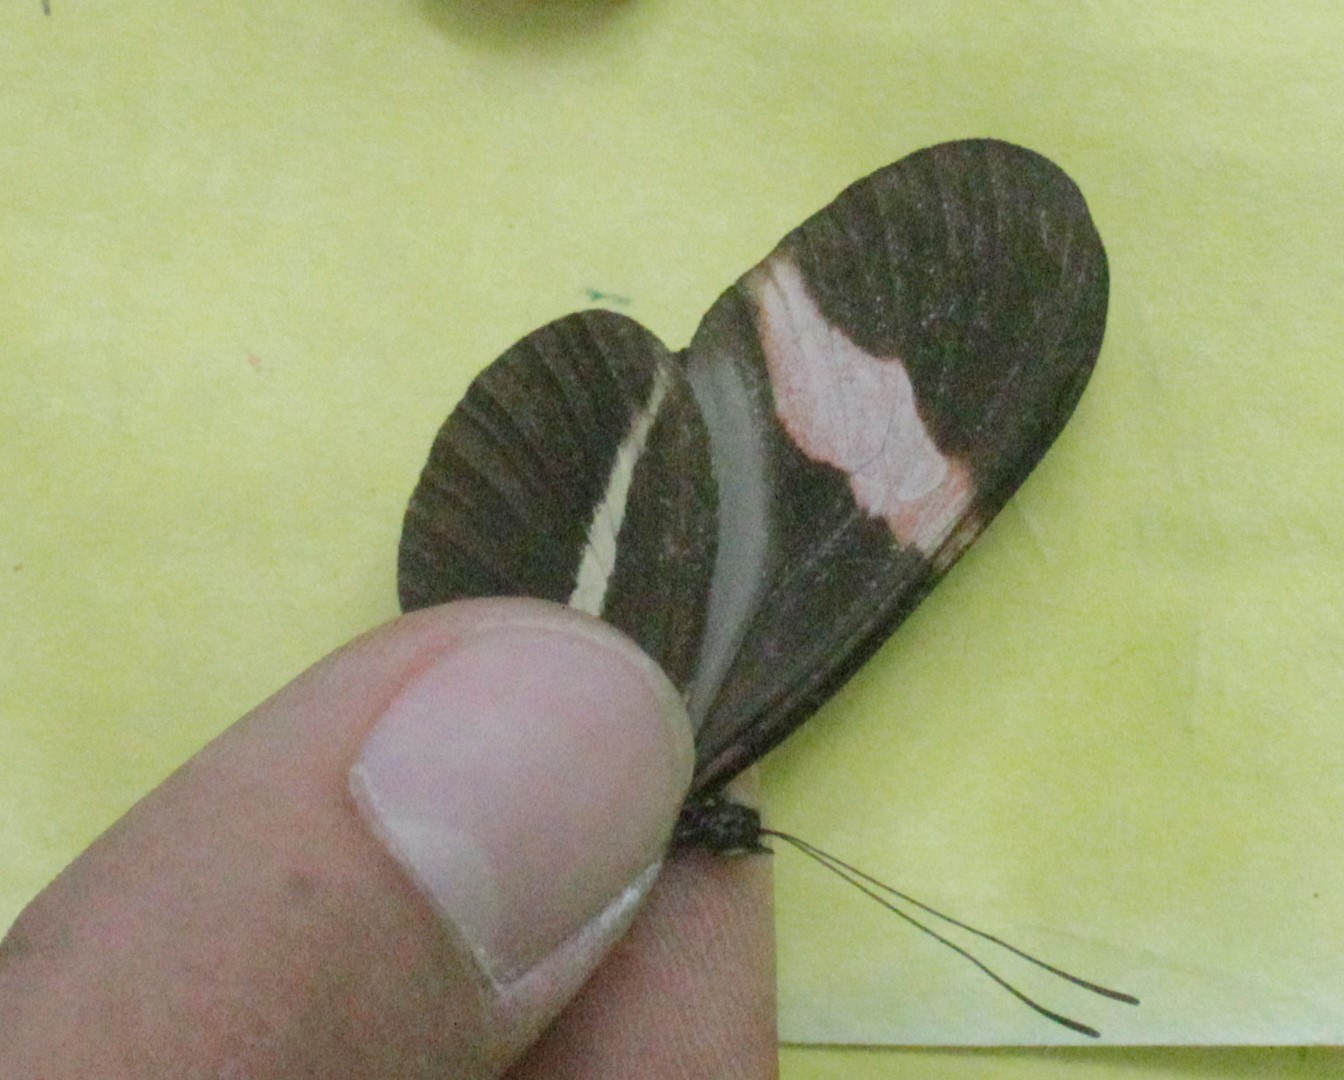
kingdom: Animalia
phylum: Arthropoda
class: Insecta
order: Lepidoptera
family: Nymphalidae
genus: Tirumala
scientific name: Tirumala petiverana
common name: Blue monarch
